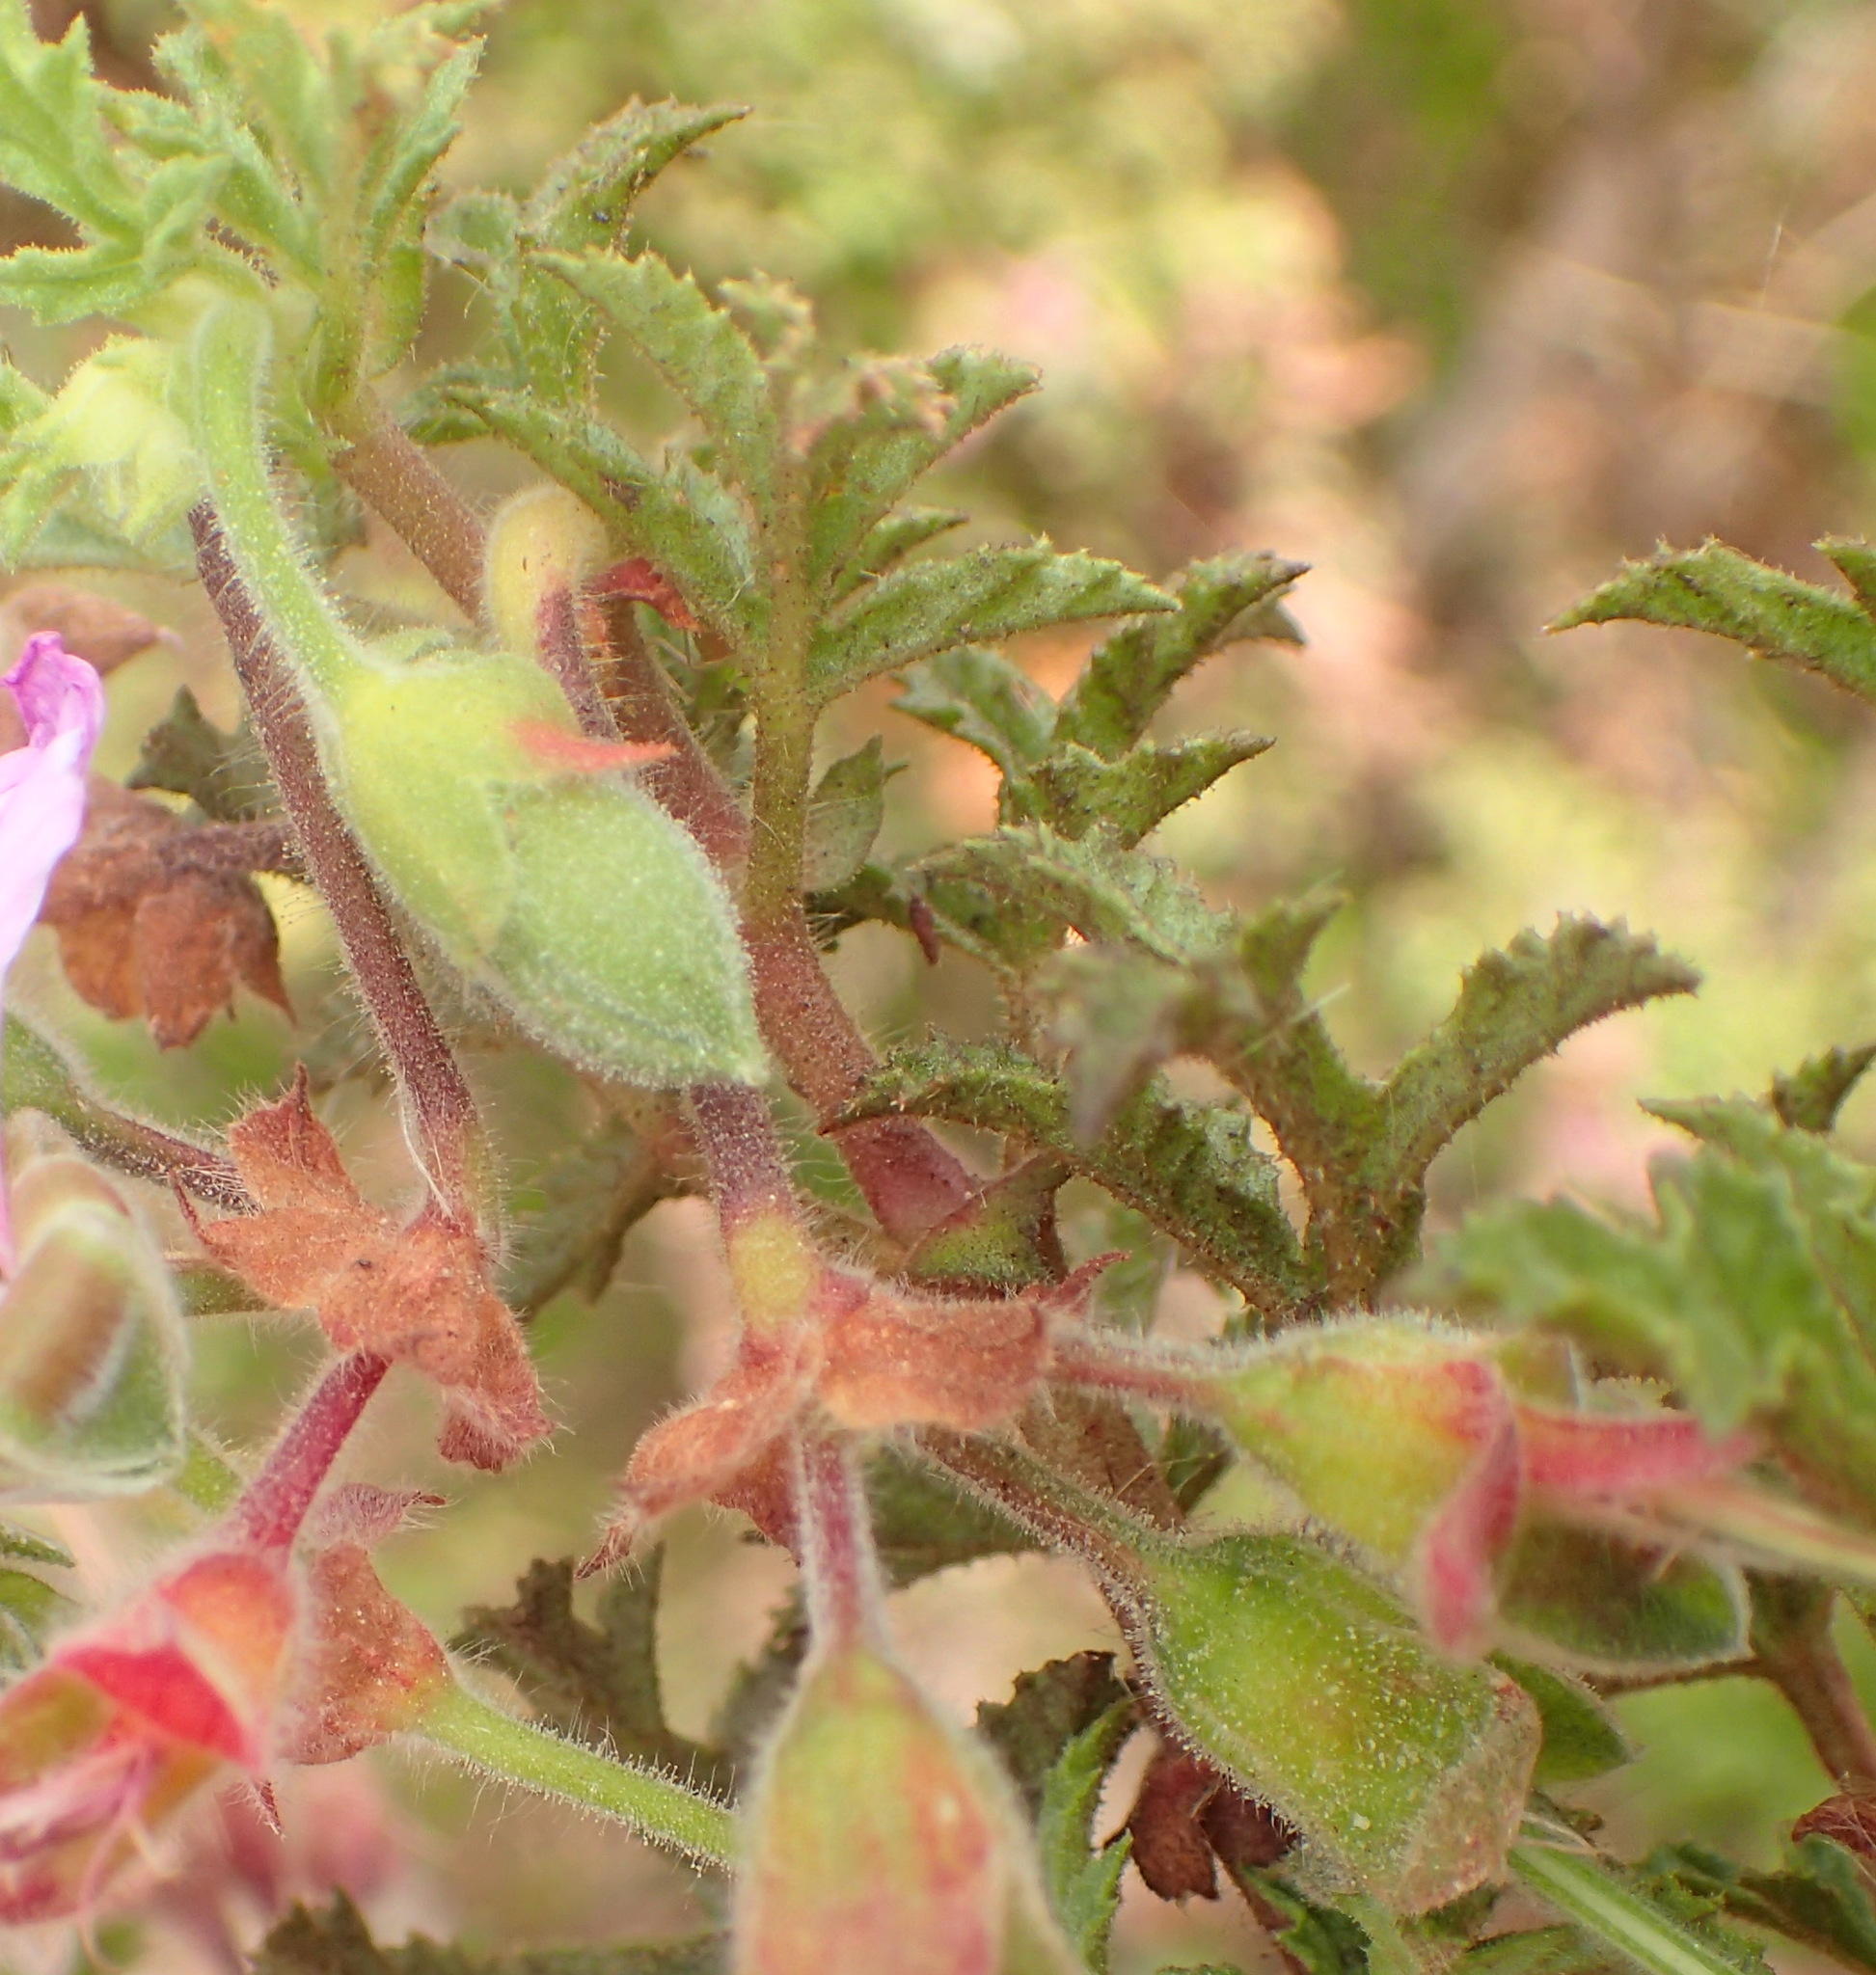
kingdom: Plantae
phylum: Tracheophyta
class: Magnoliopsida
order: Geraniales
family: Geraniaceae
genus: Pelargonium
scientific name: Pelargonium quercifolium
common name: Oakleaf geranium
